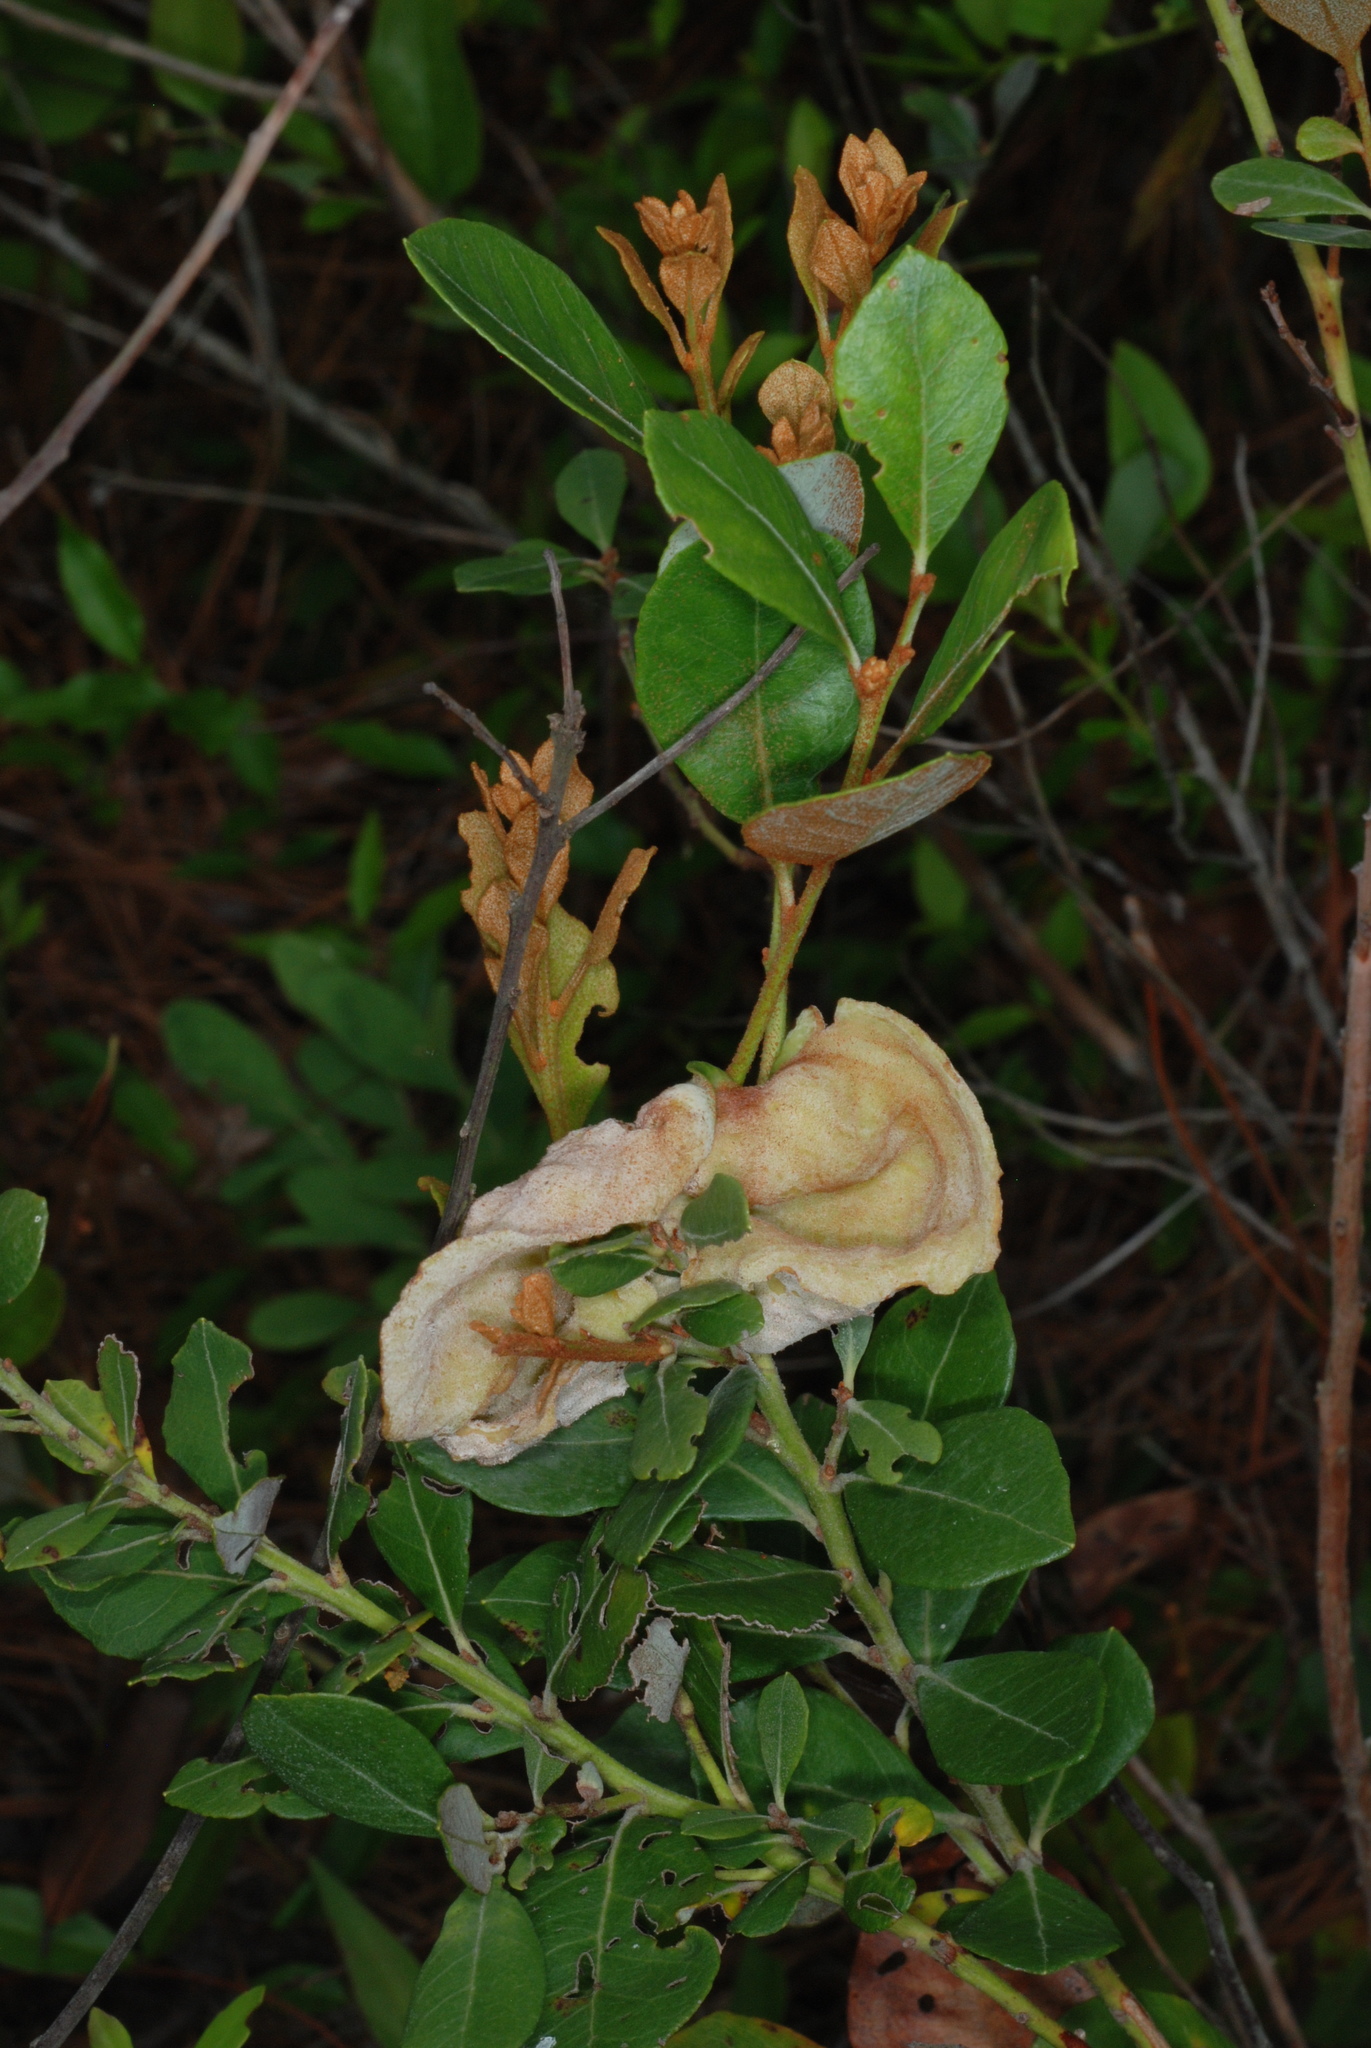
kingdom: Fungi
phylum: Basidiomycota
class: Exobasidiomycetes
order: Exobasidiales
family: Exobasidiaceae
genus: Exobasidium
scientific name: Exobasidium ferrugineae
